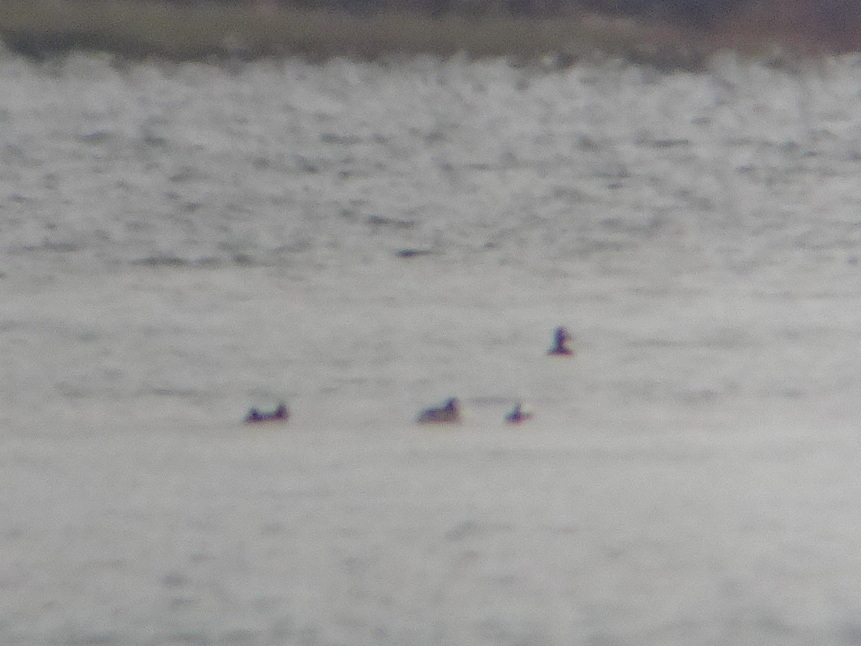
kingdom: Animalia
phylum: Chordata
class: Aves
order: Anseriformes
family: Anatidae
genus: Aythya
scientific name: Aythya marila
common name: Greater scaup
